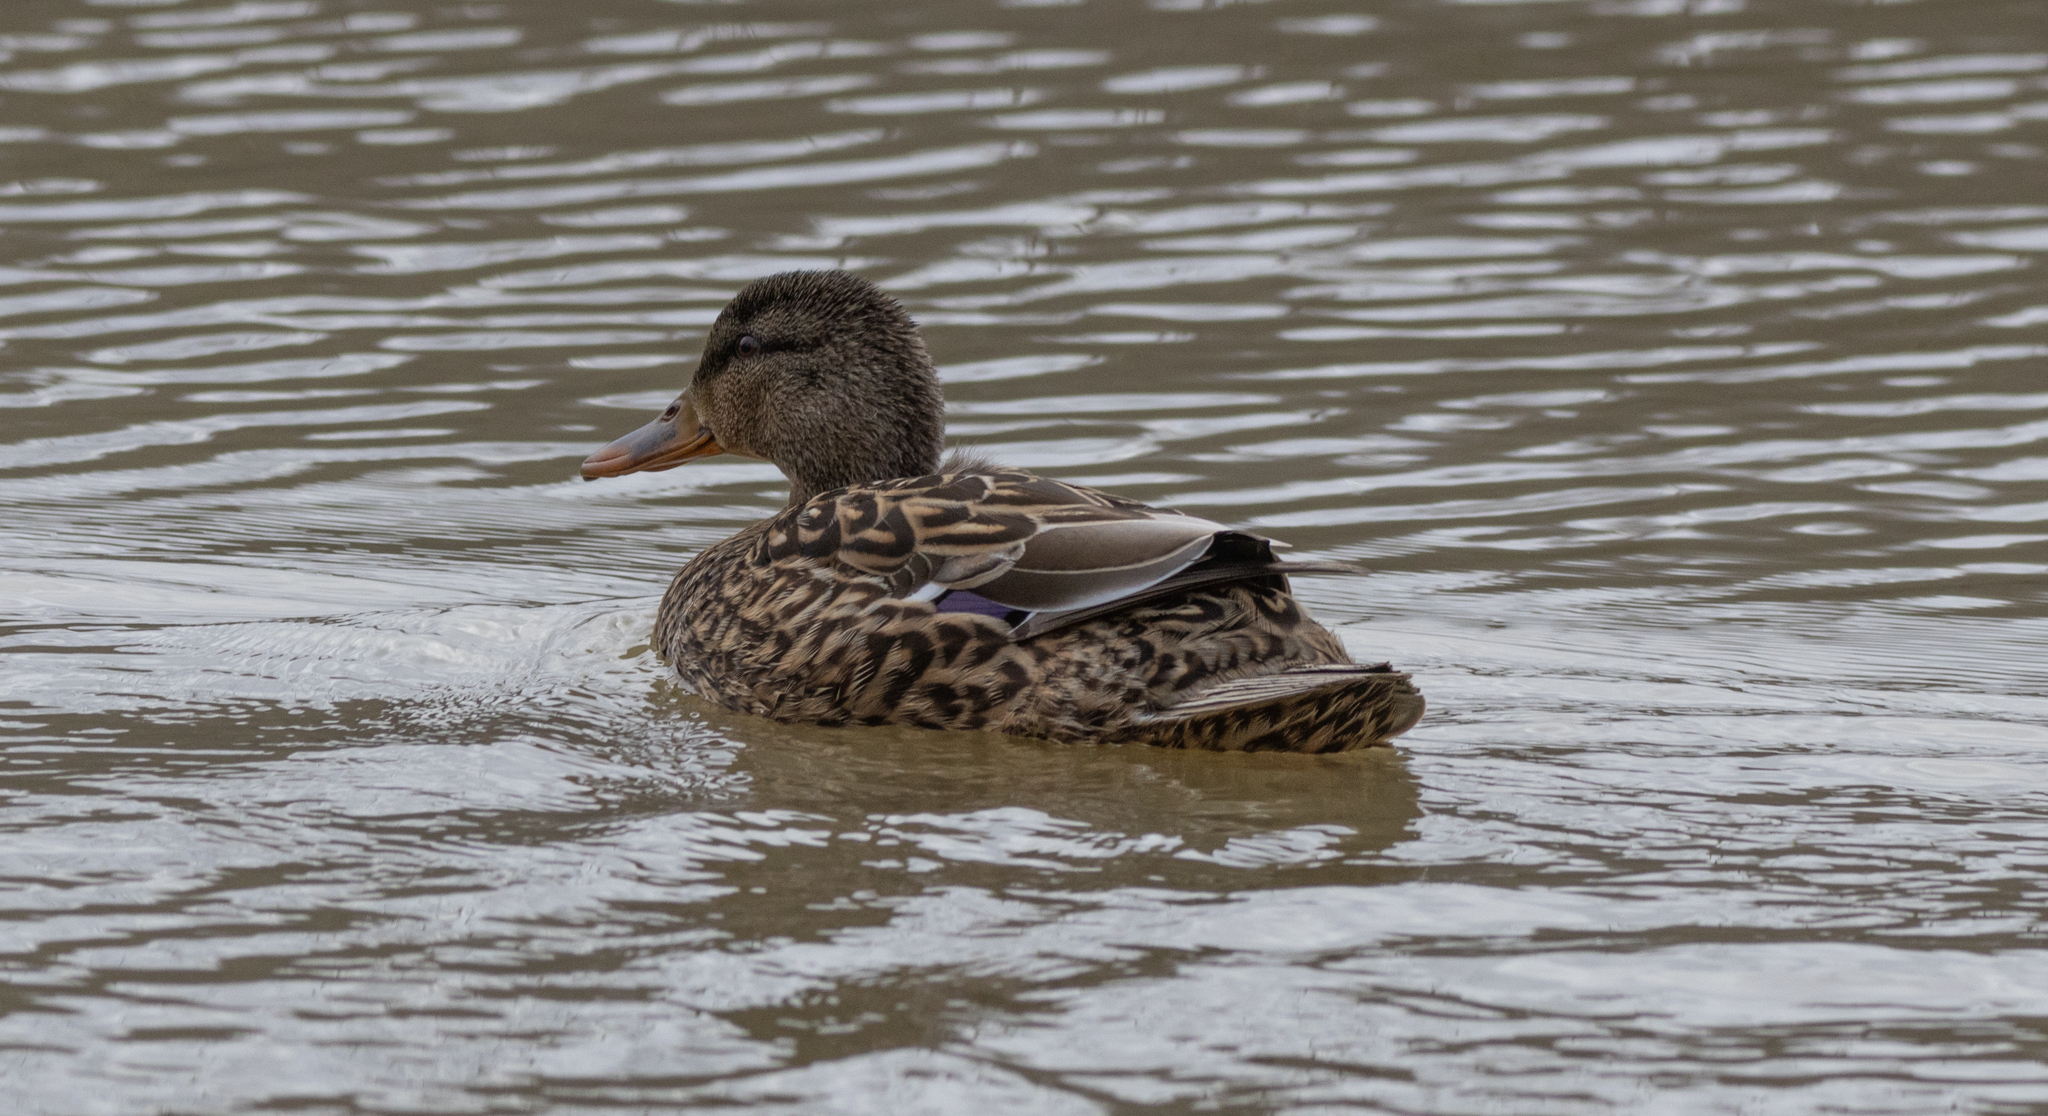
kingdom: Animalia
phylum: Chordata
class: Aves
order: Anseriformes
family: Anatidae
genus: Anas
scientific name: Anas platyrhynchos
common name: Mallard
